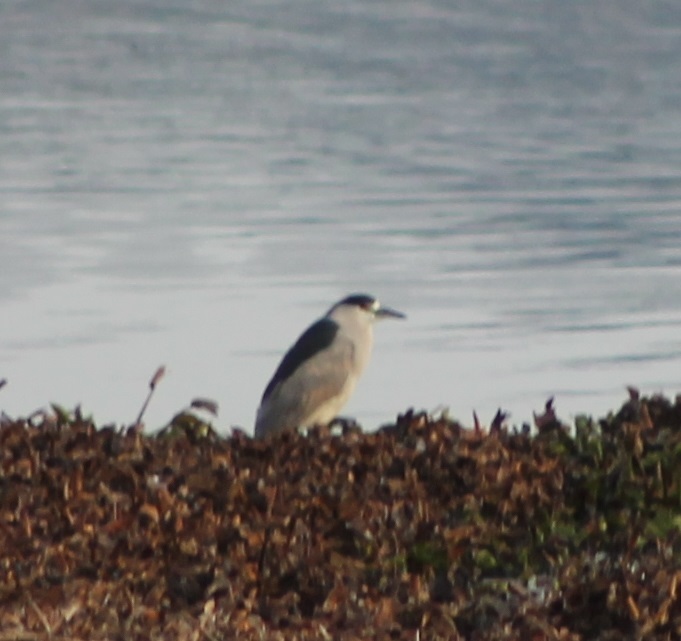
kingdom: Animalia
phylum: Chordata
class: Aves
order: Pelecaniformes
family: Ardeidae
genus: Nycticorax
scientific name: Nycticorax nycticorax
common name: Black-crowned night heron
